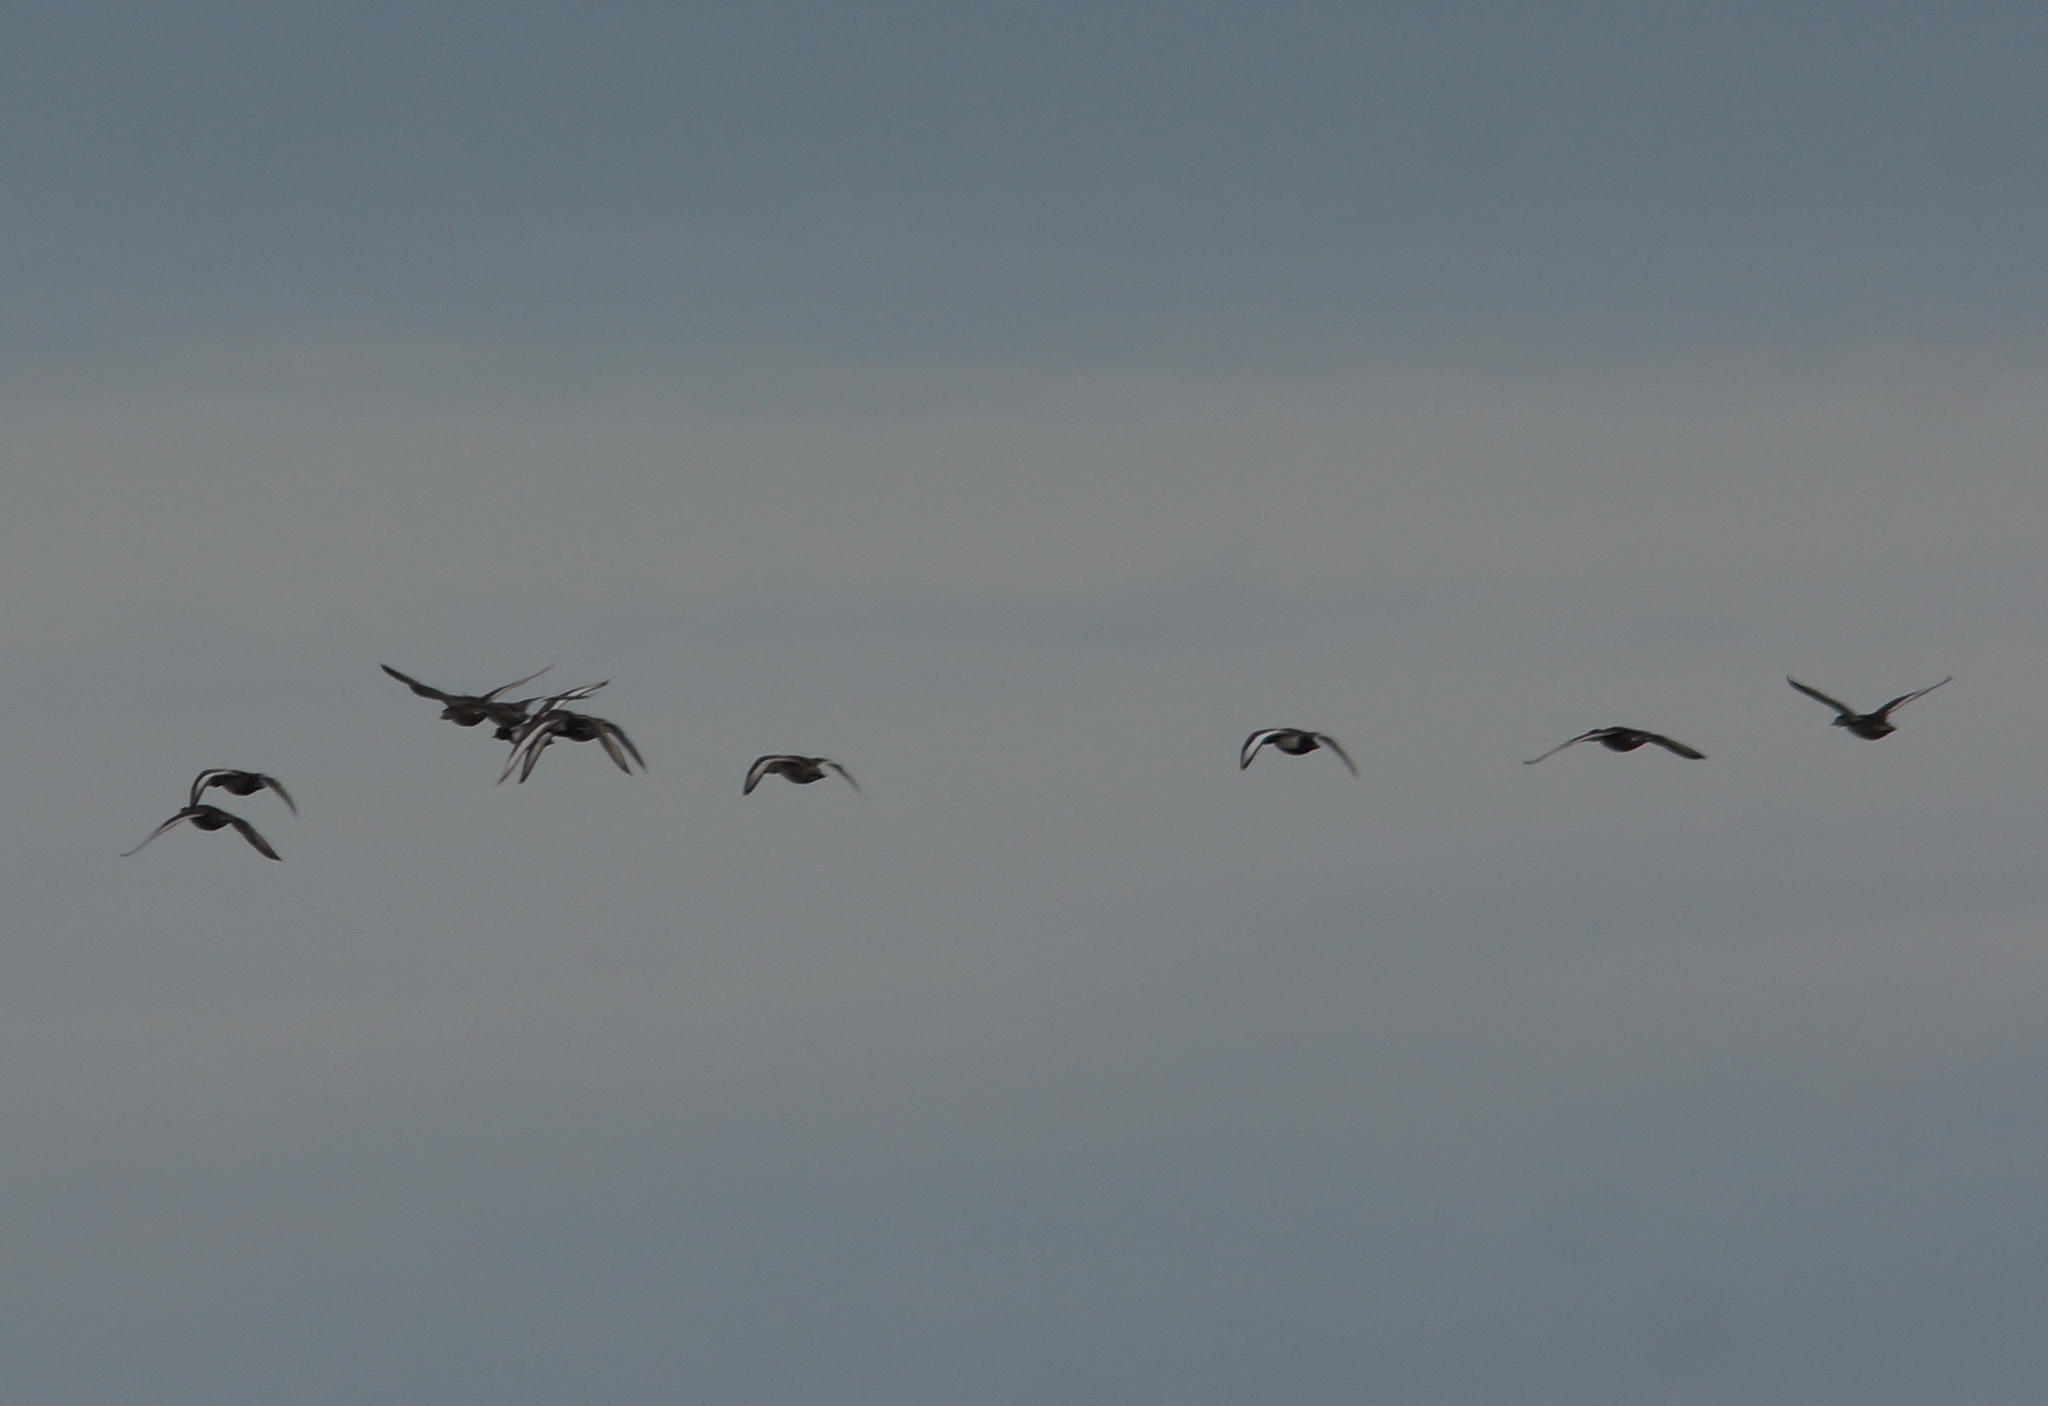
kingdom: Animalia
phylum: Chordata
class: Aves
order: Anseriformes
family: Anatidae
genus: Netta
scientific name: Netta rufina
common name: Red-crested pochard
